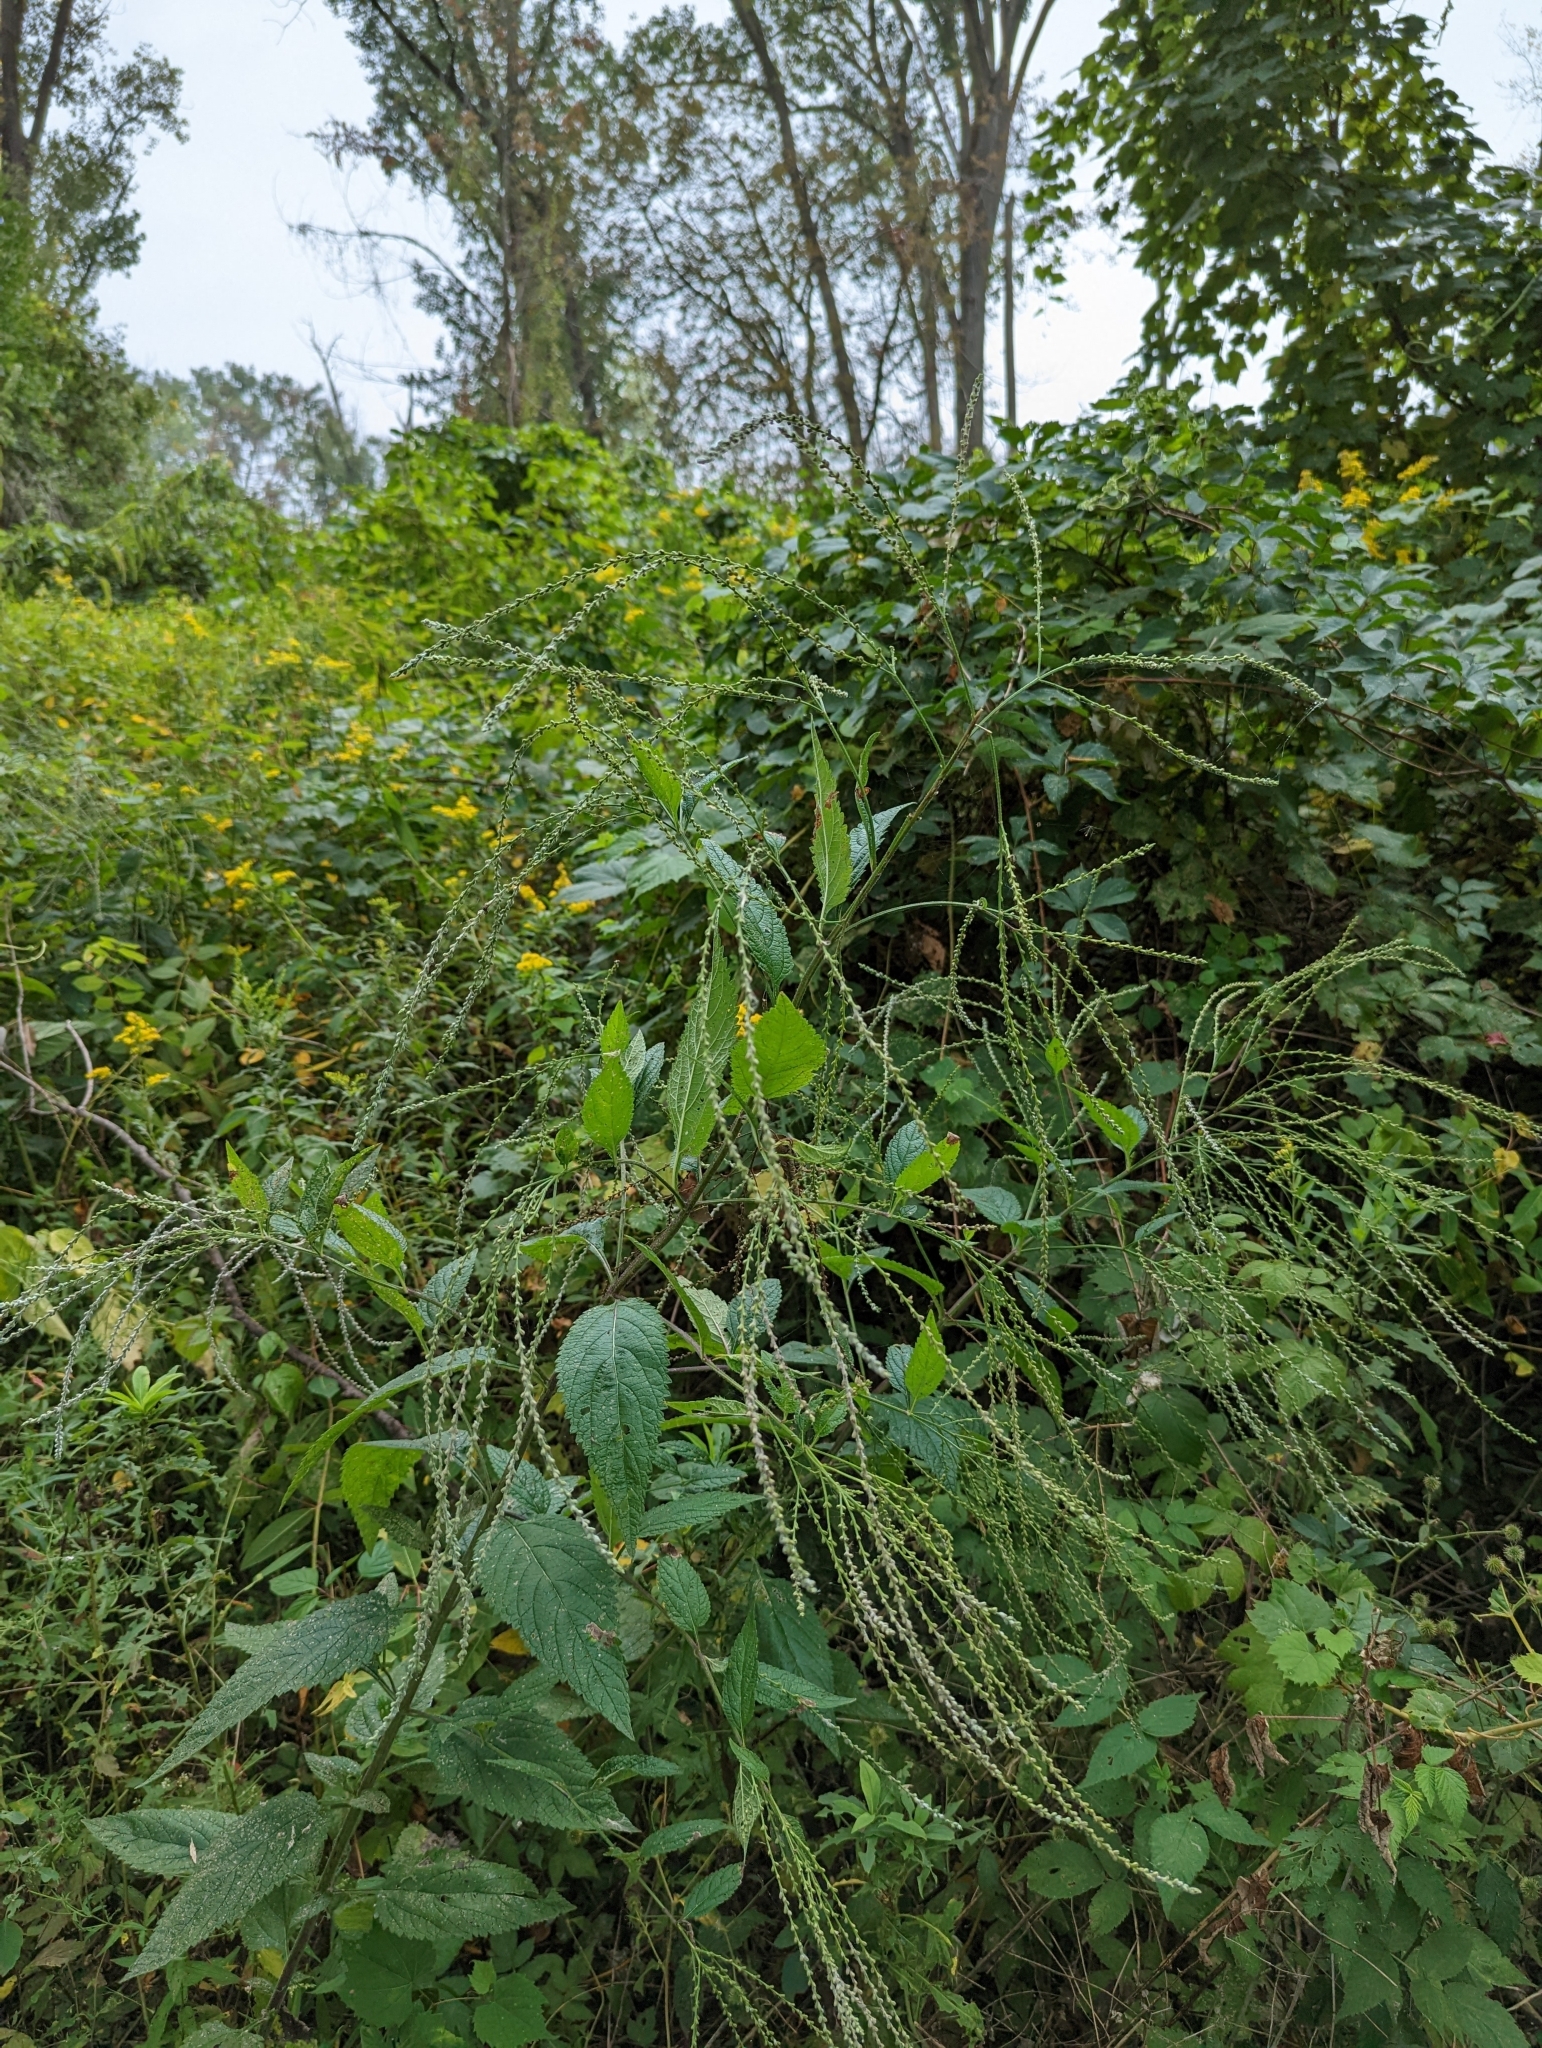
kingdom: Plantae
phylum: Tracheophyta
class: Magnoliopsida
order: Lamiales
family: Verbenaceae
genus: Verbena
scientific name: Verbena urticifolia
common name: Nettle-leaved vervain
